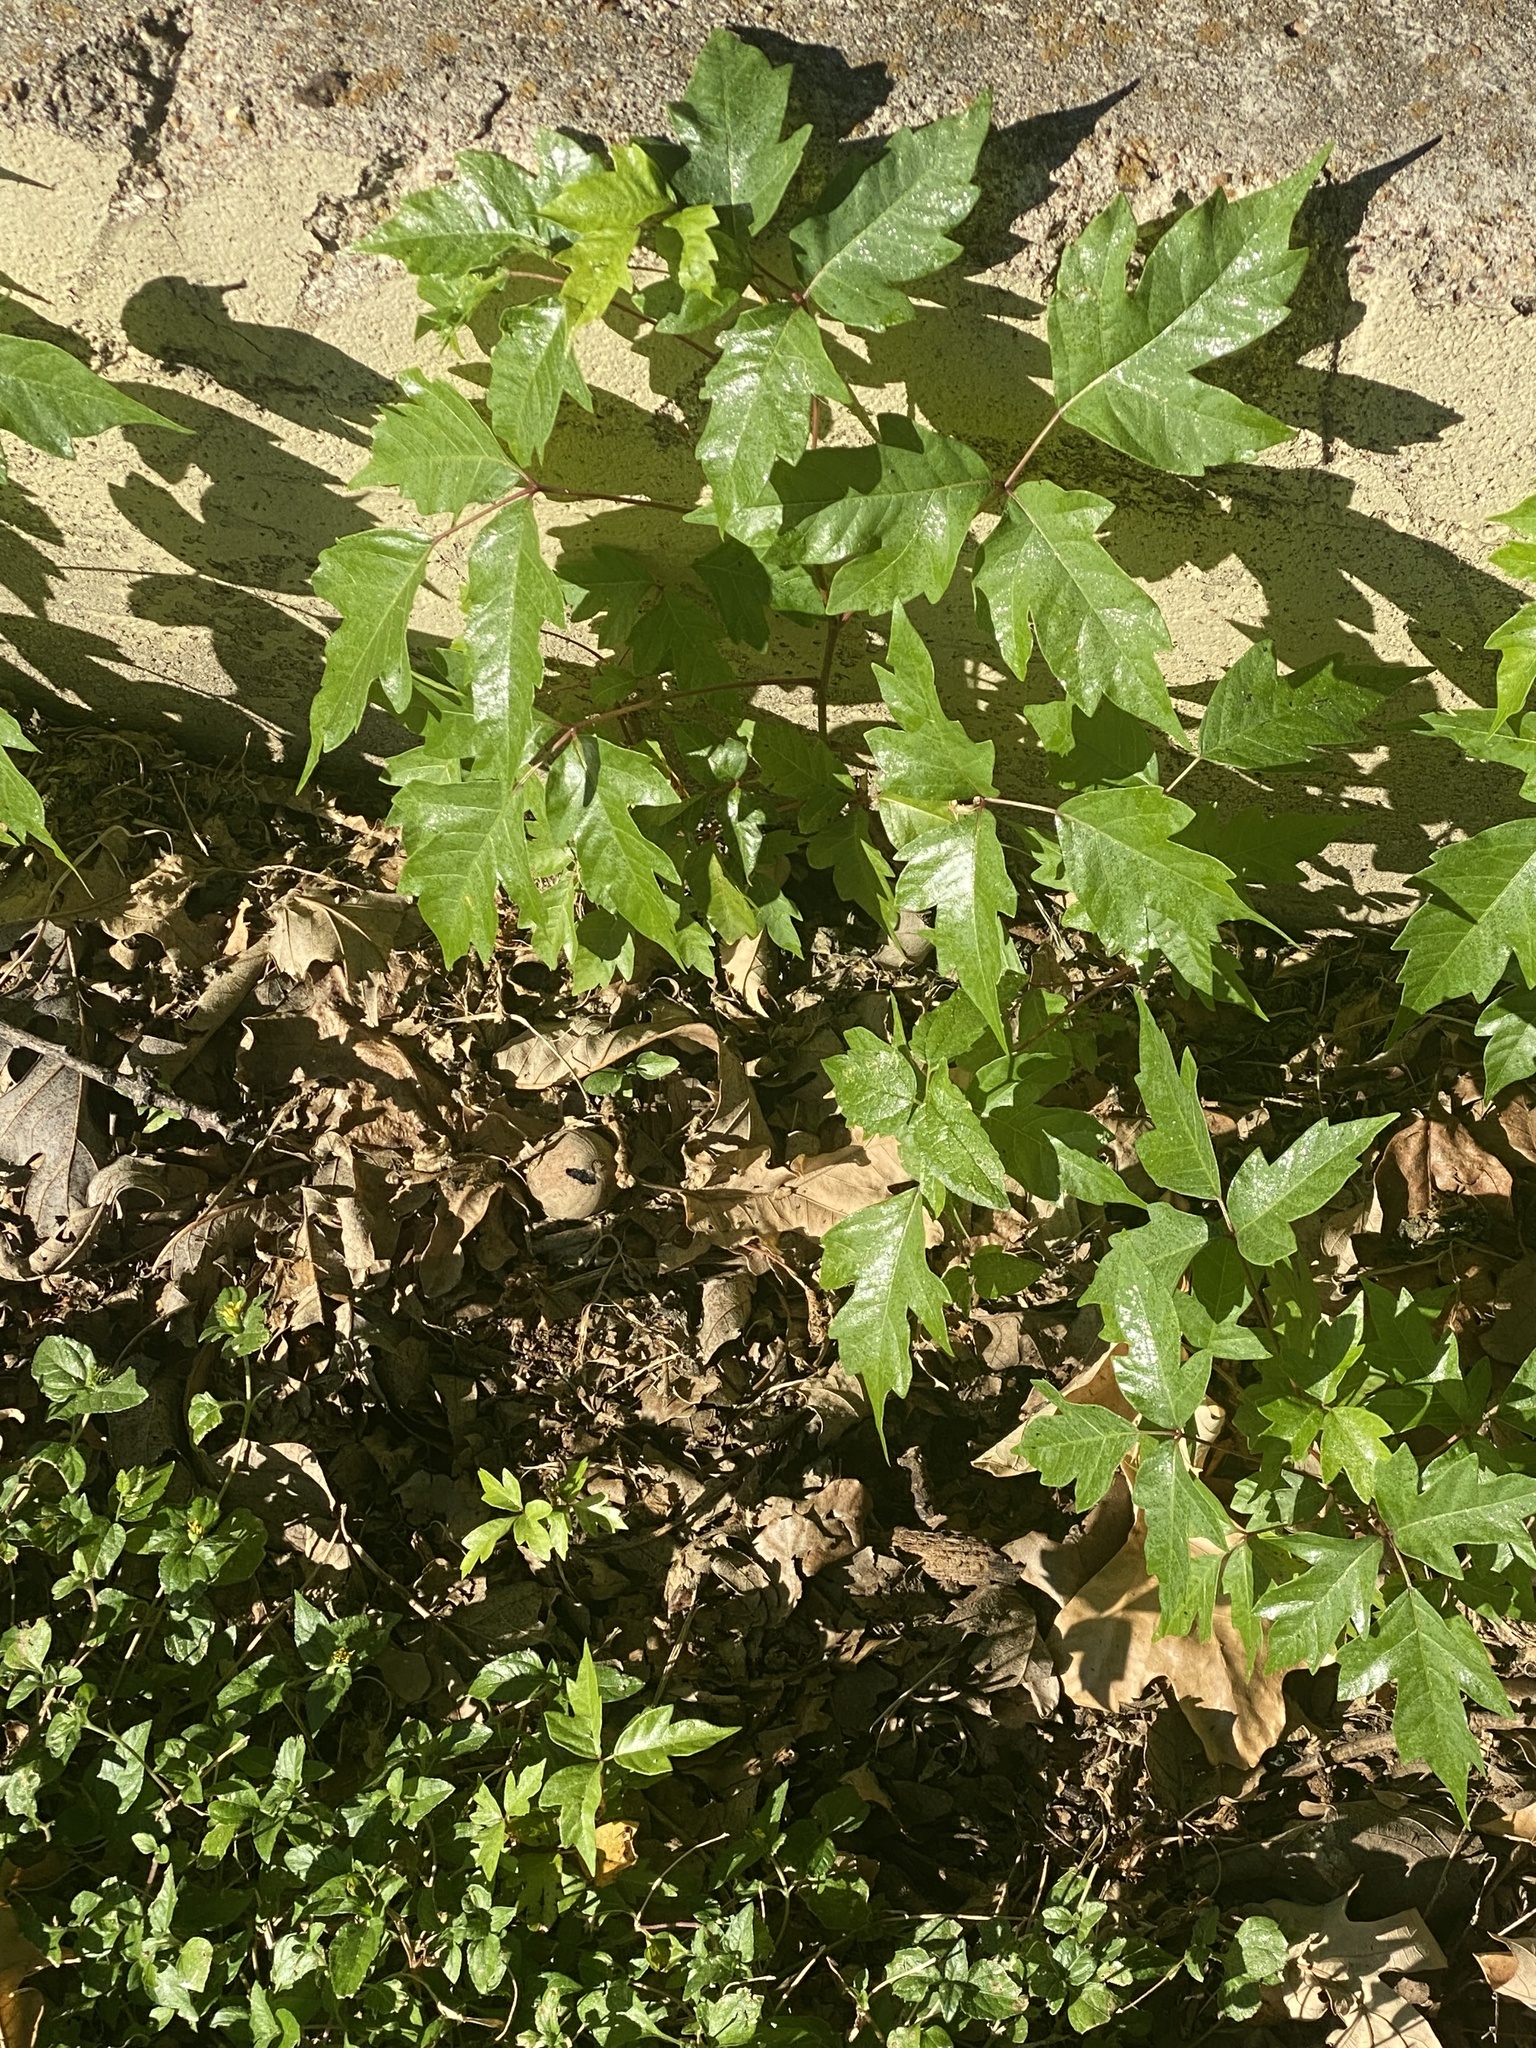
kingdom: Plantae
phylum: Tracheophyta
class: Magnoliopsida
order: Sapindales
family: Anacardiaceae
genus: Toxicodendron
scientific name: Toxicodendron radicans
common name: Poison ivy
